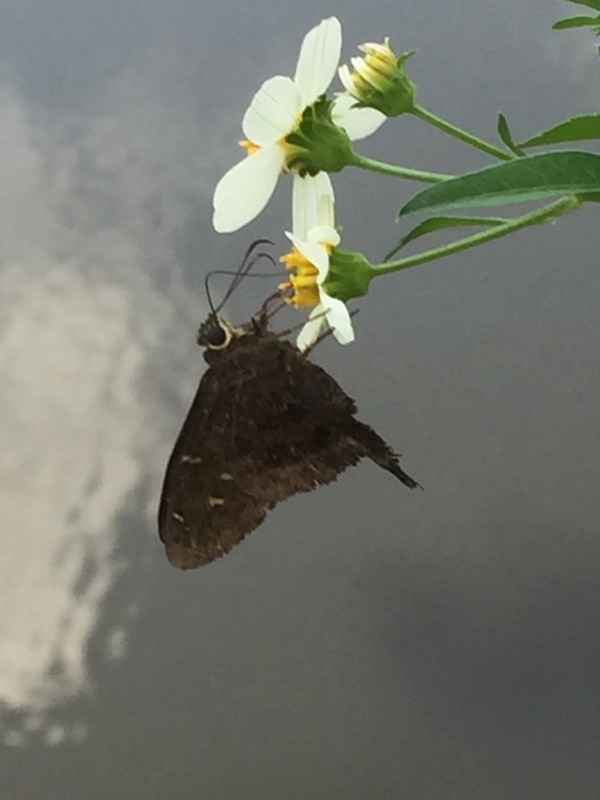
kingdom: Animalia
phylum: Arthropoda
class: Insecta
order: Lepidoptera
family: Hesperiidae
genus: Thorybes
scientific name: Thorybes
